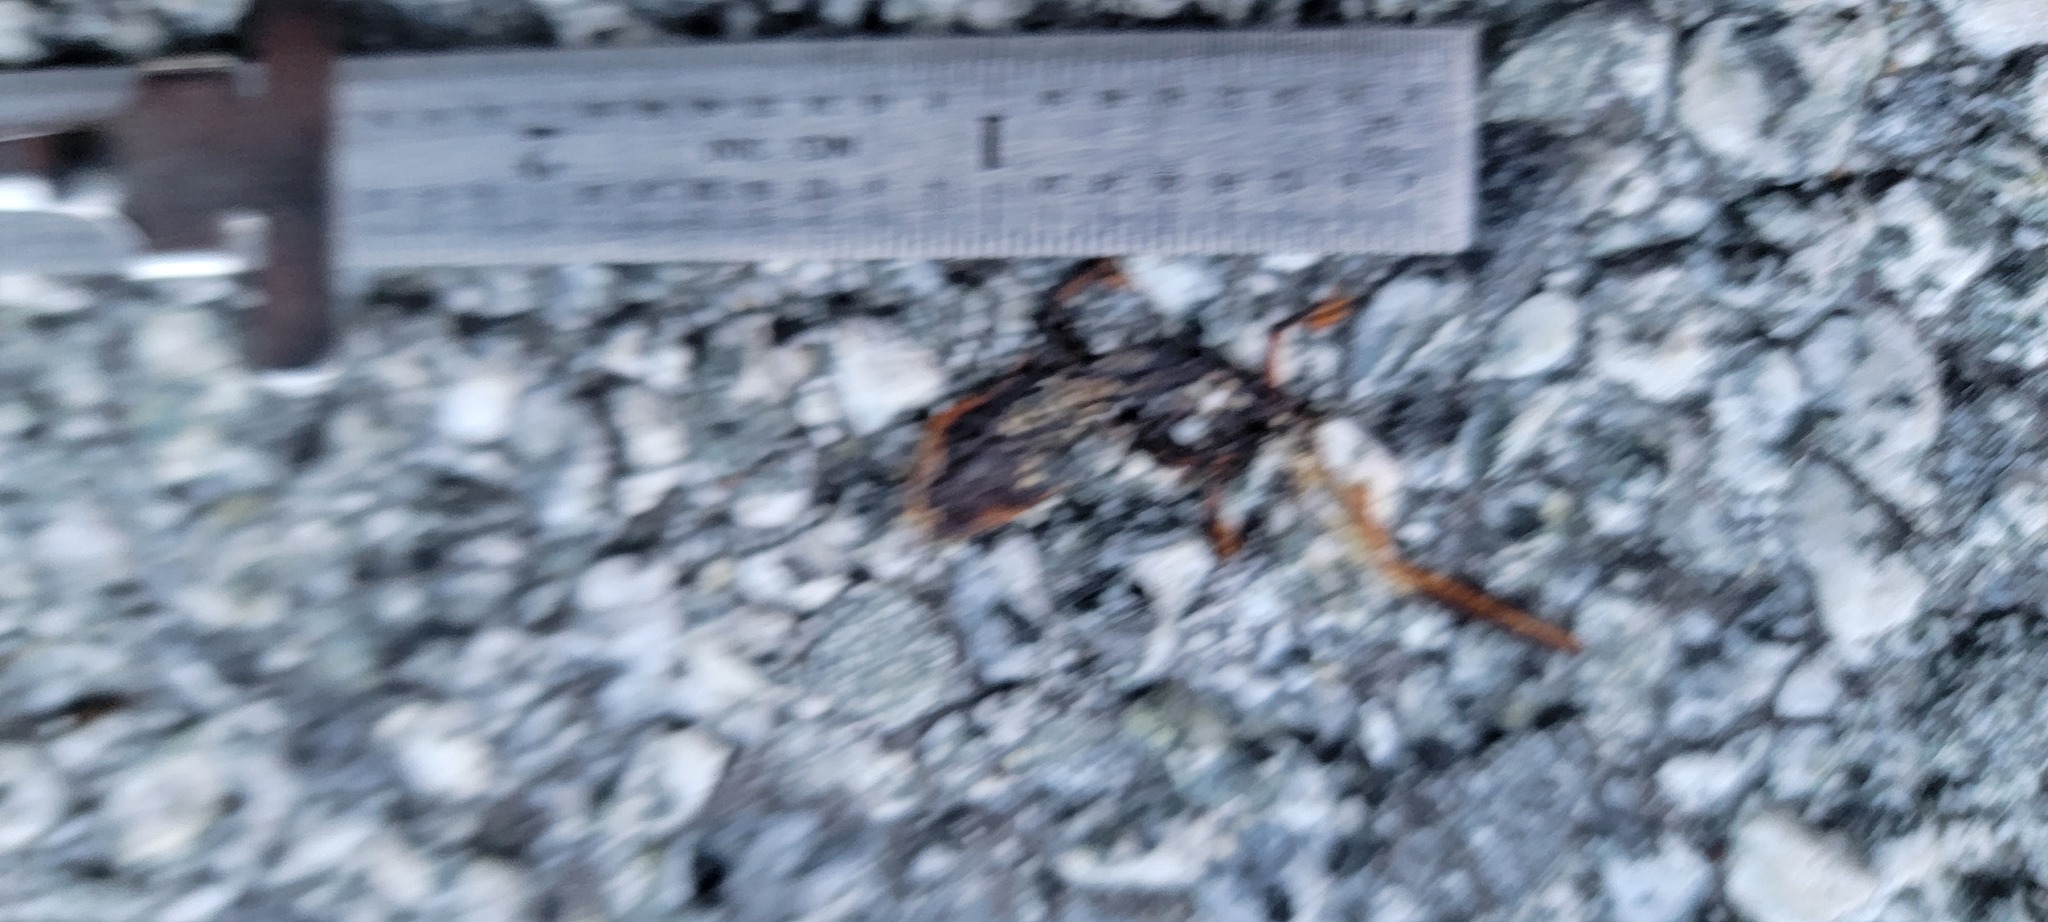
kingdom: Animalia
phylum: Chordata
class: Amphibia
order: Caudata
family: Salamandridae
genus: Taricha
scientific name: Taricha
